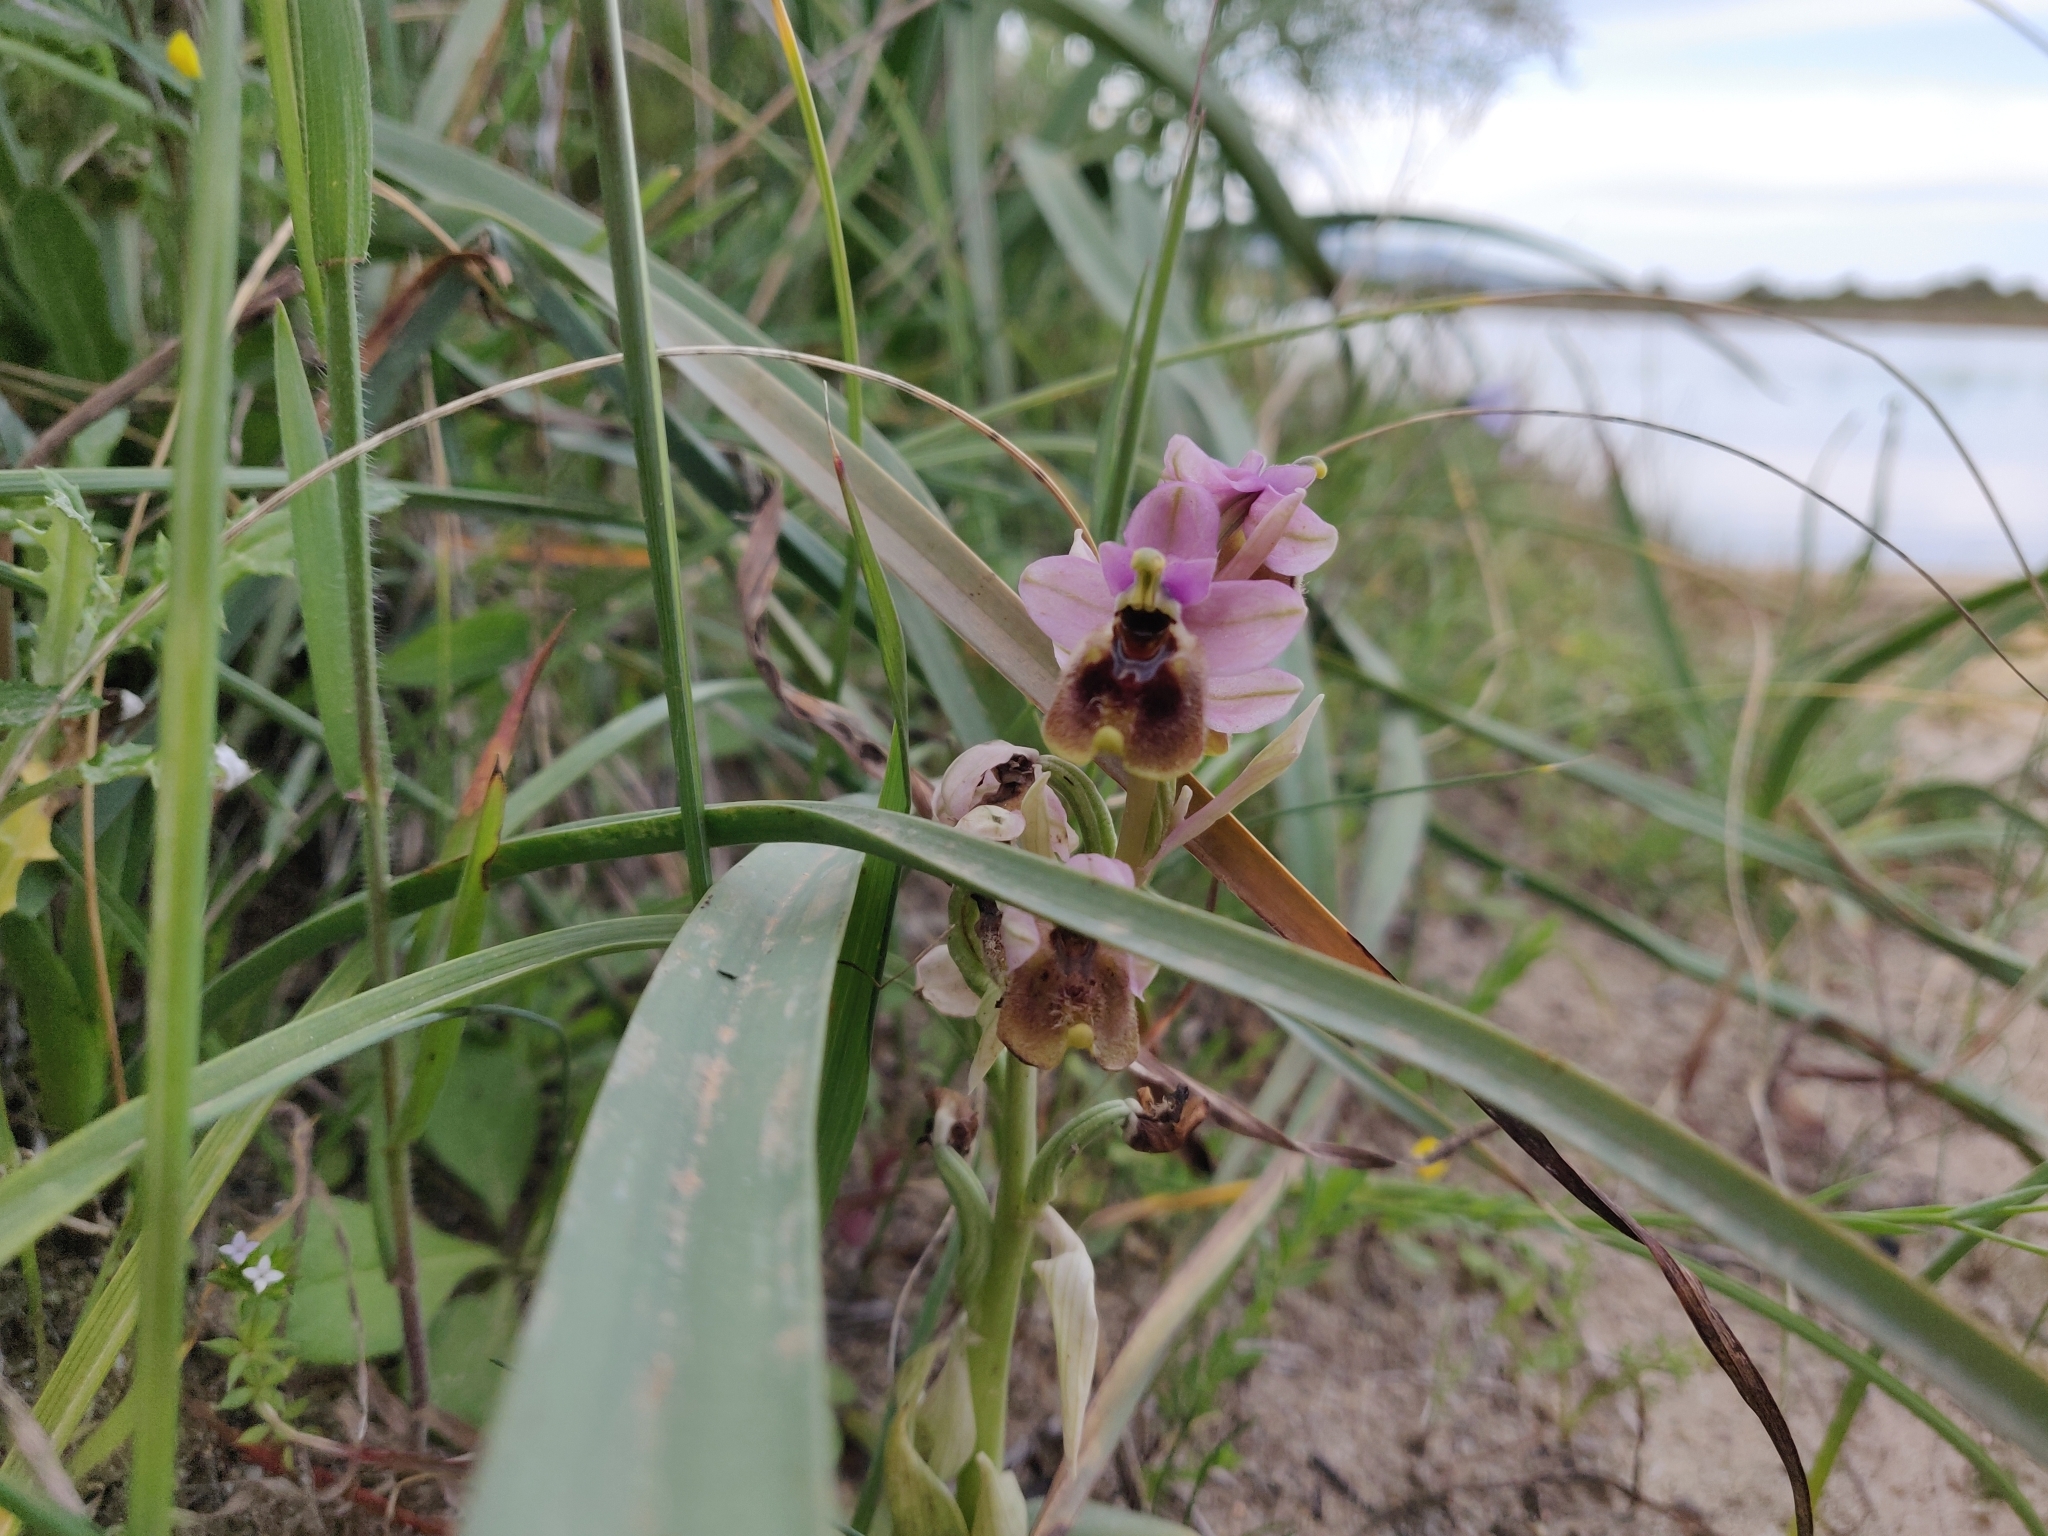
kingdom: Plantae
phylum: Tracheophyta
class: Liliopsida
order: Asparagales
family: Orchidaceae
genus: Ophrys
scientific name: Ophrys tenthredinifera
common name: Sawfly orchid
